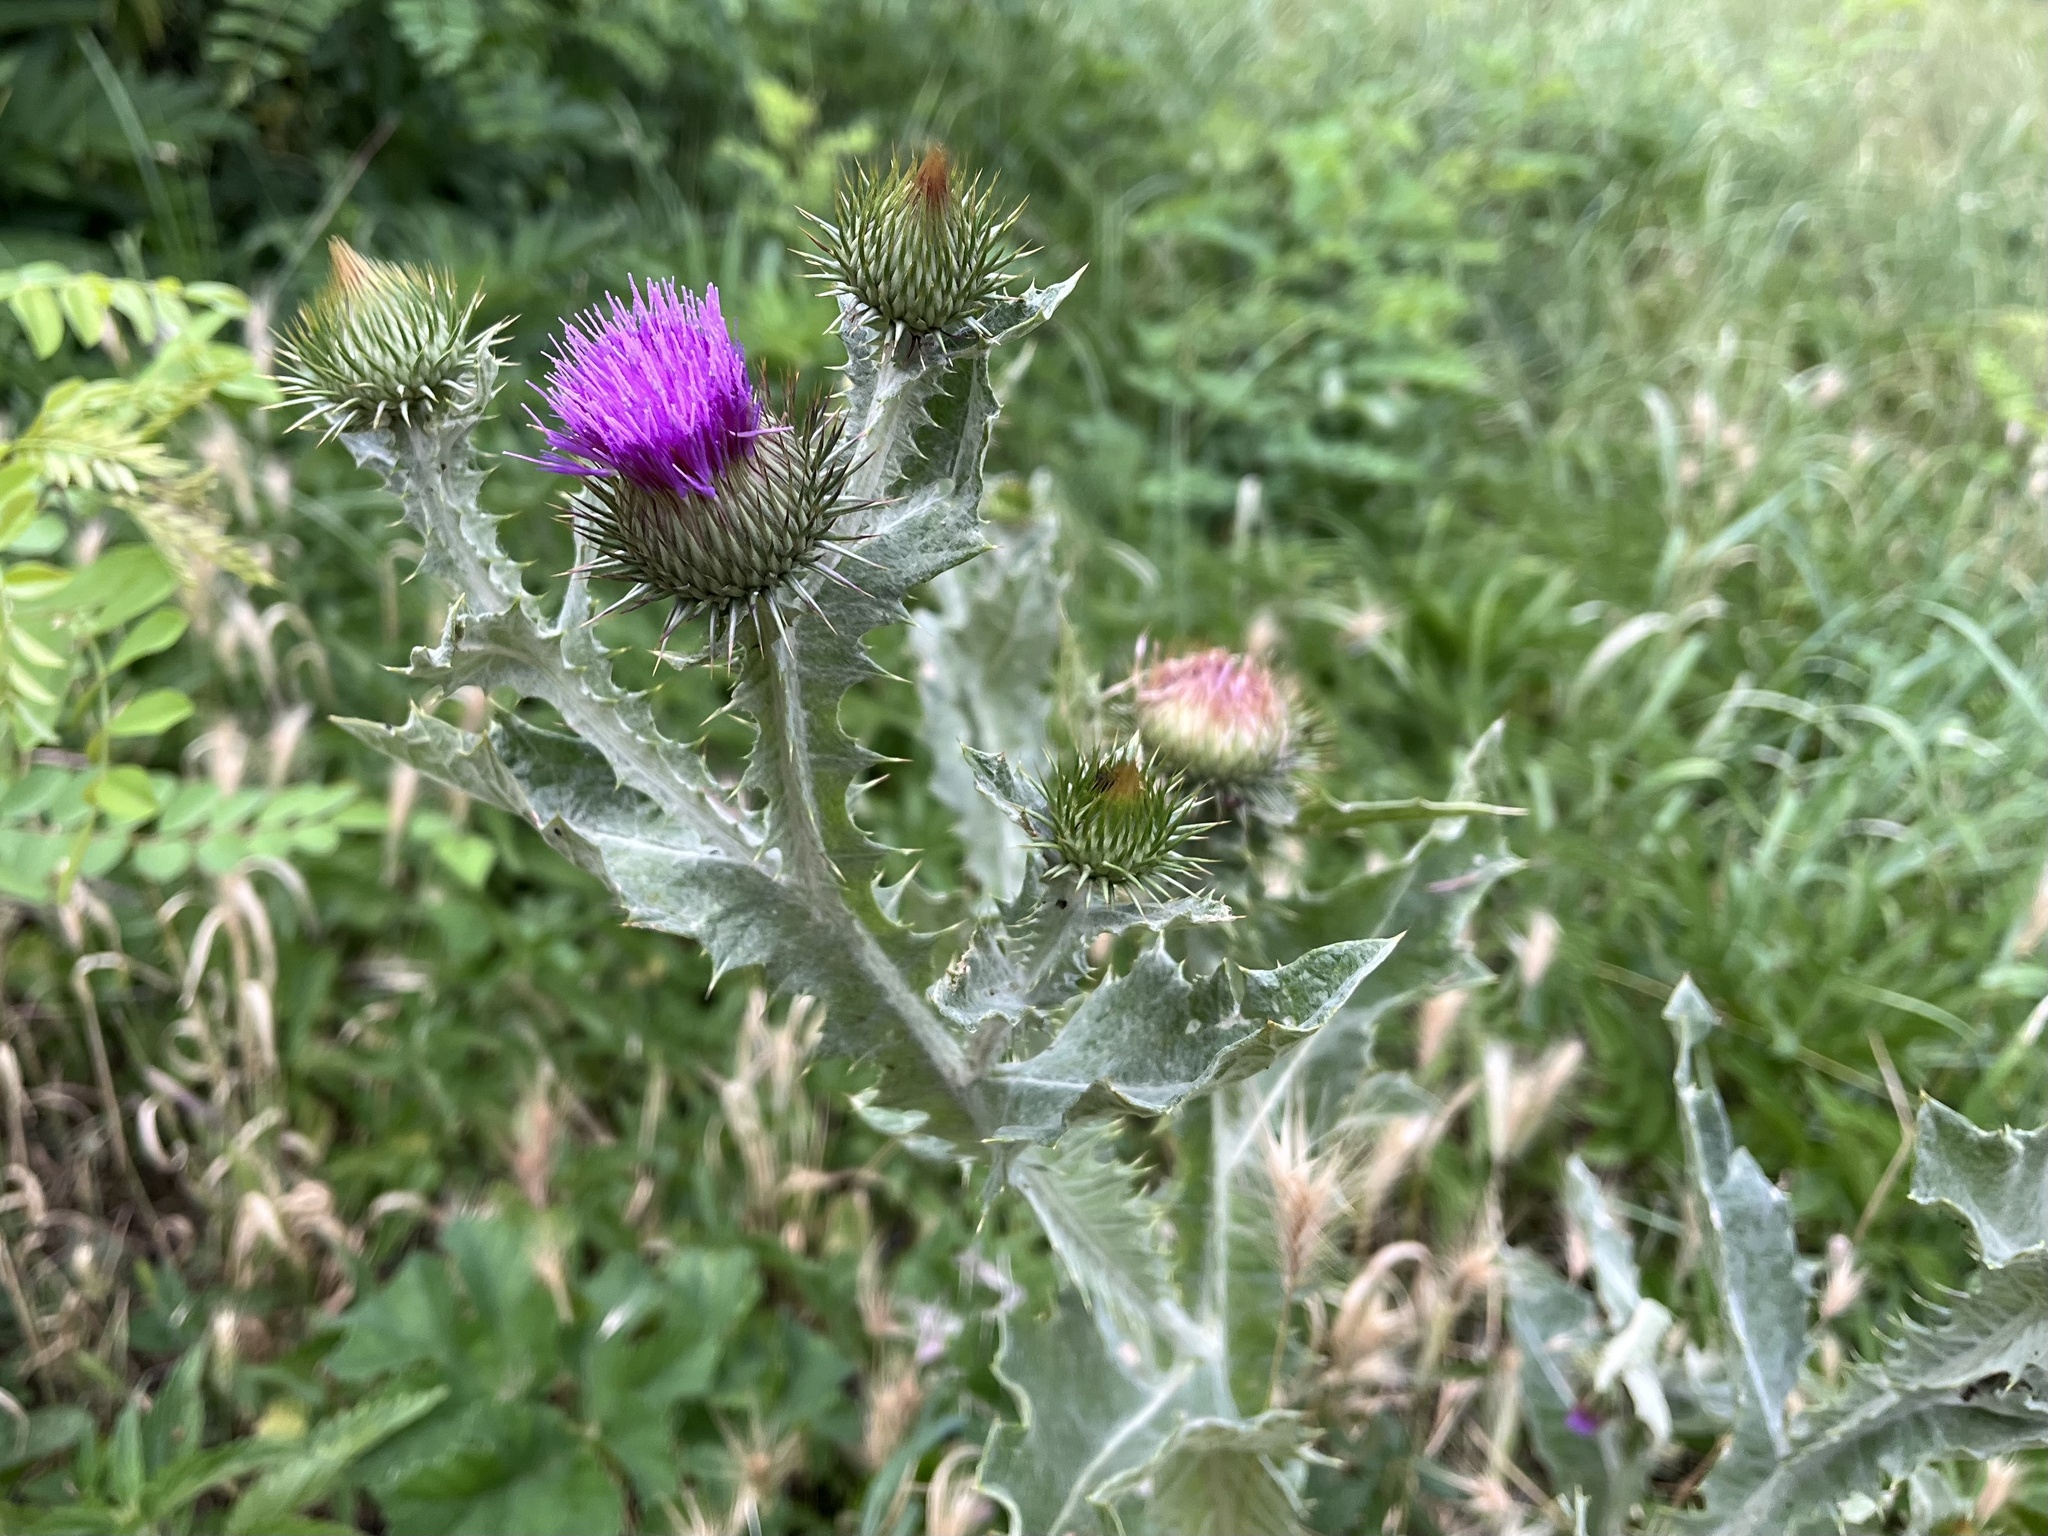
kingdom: Plantae
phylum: Tracheophyta
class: Magnoliopsida
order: Asterales
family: Asteraceae
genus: Onopordum
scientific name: Onopordum acanthium
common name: Scotch thistle
